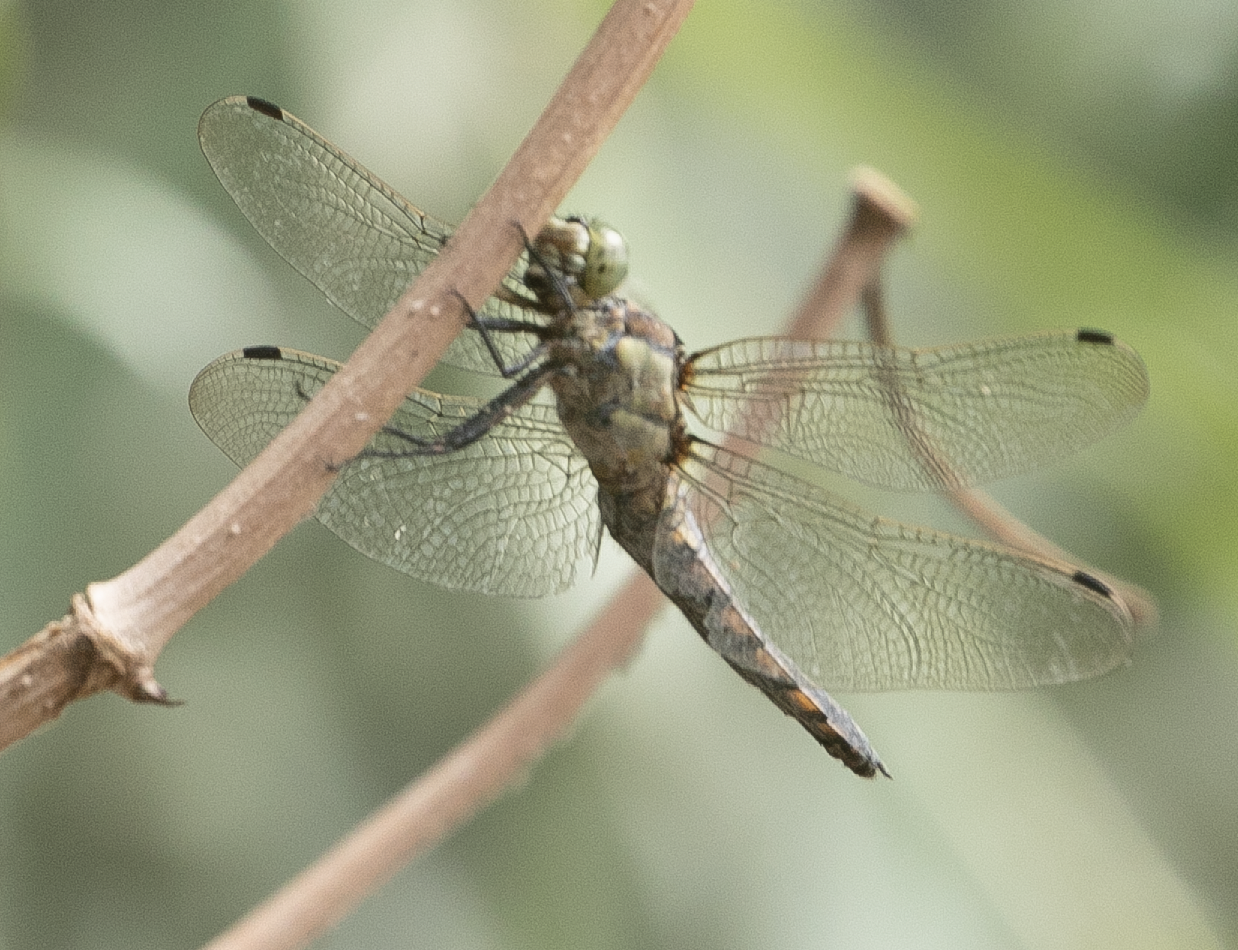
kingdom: Animalia
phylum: Arthropoda
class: Insecta
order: Odonata
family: Libellulidae
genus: Orthetrum
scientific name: Orthetrum cancellatum
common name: Black-tailed skimmer
